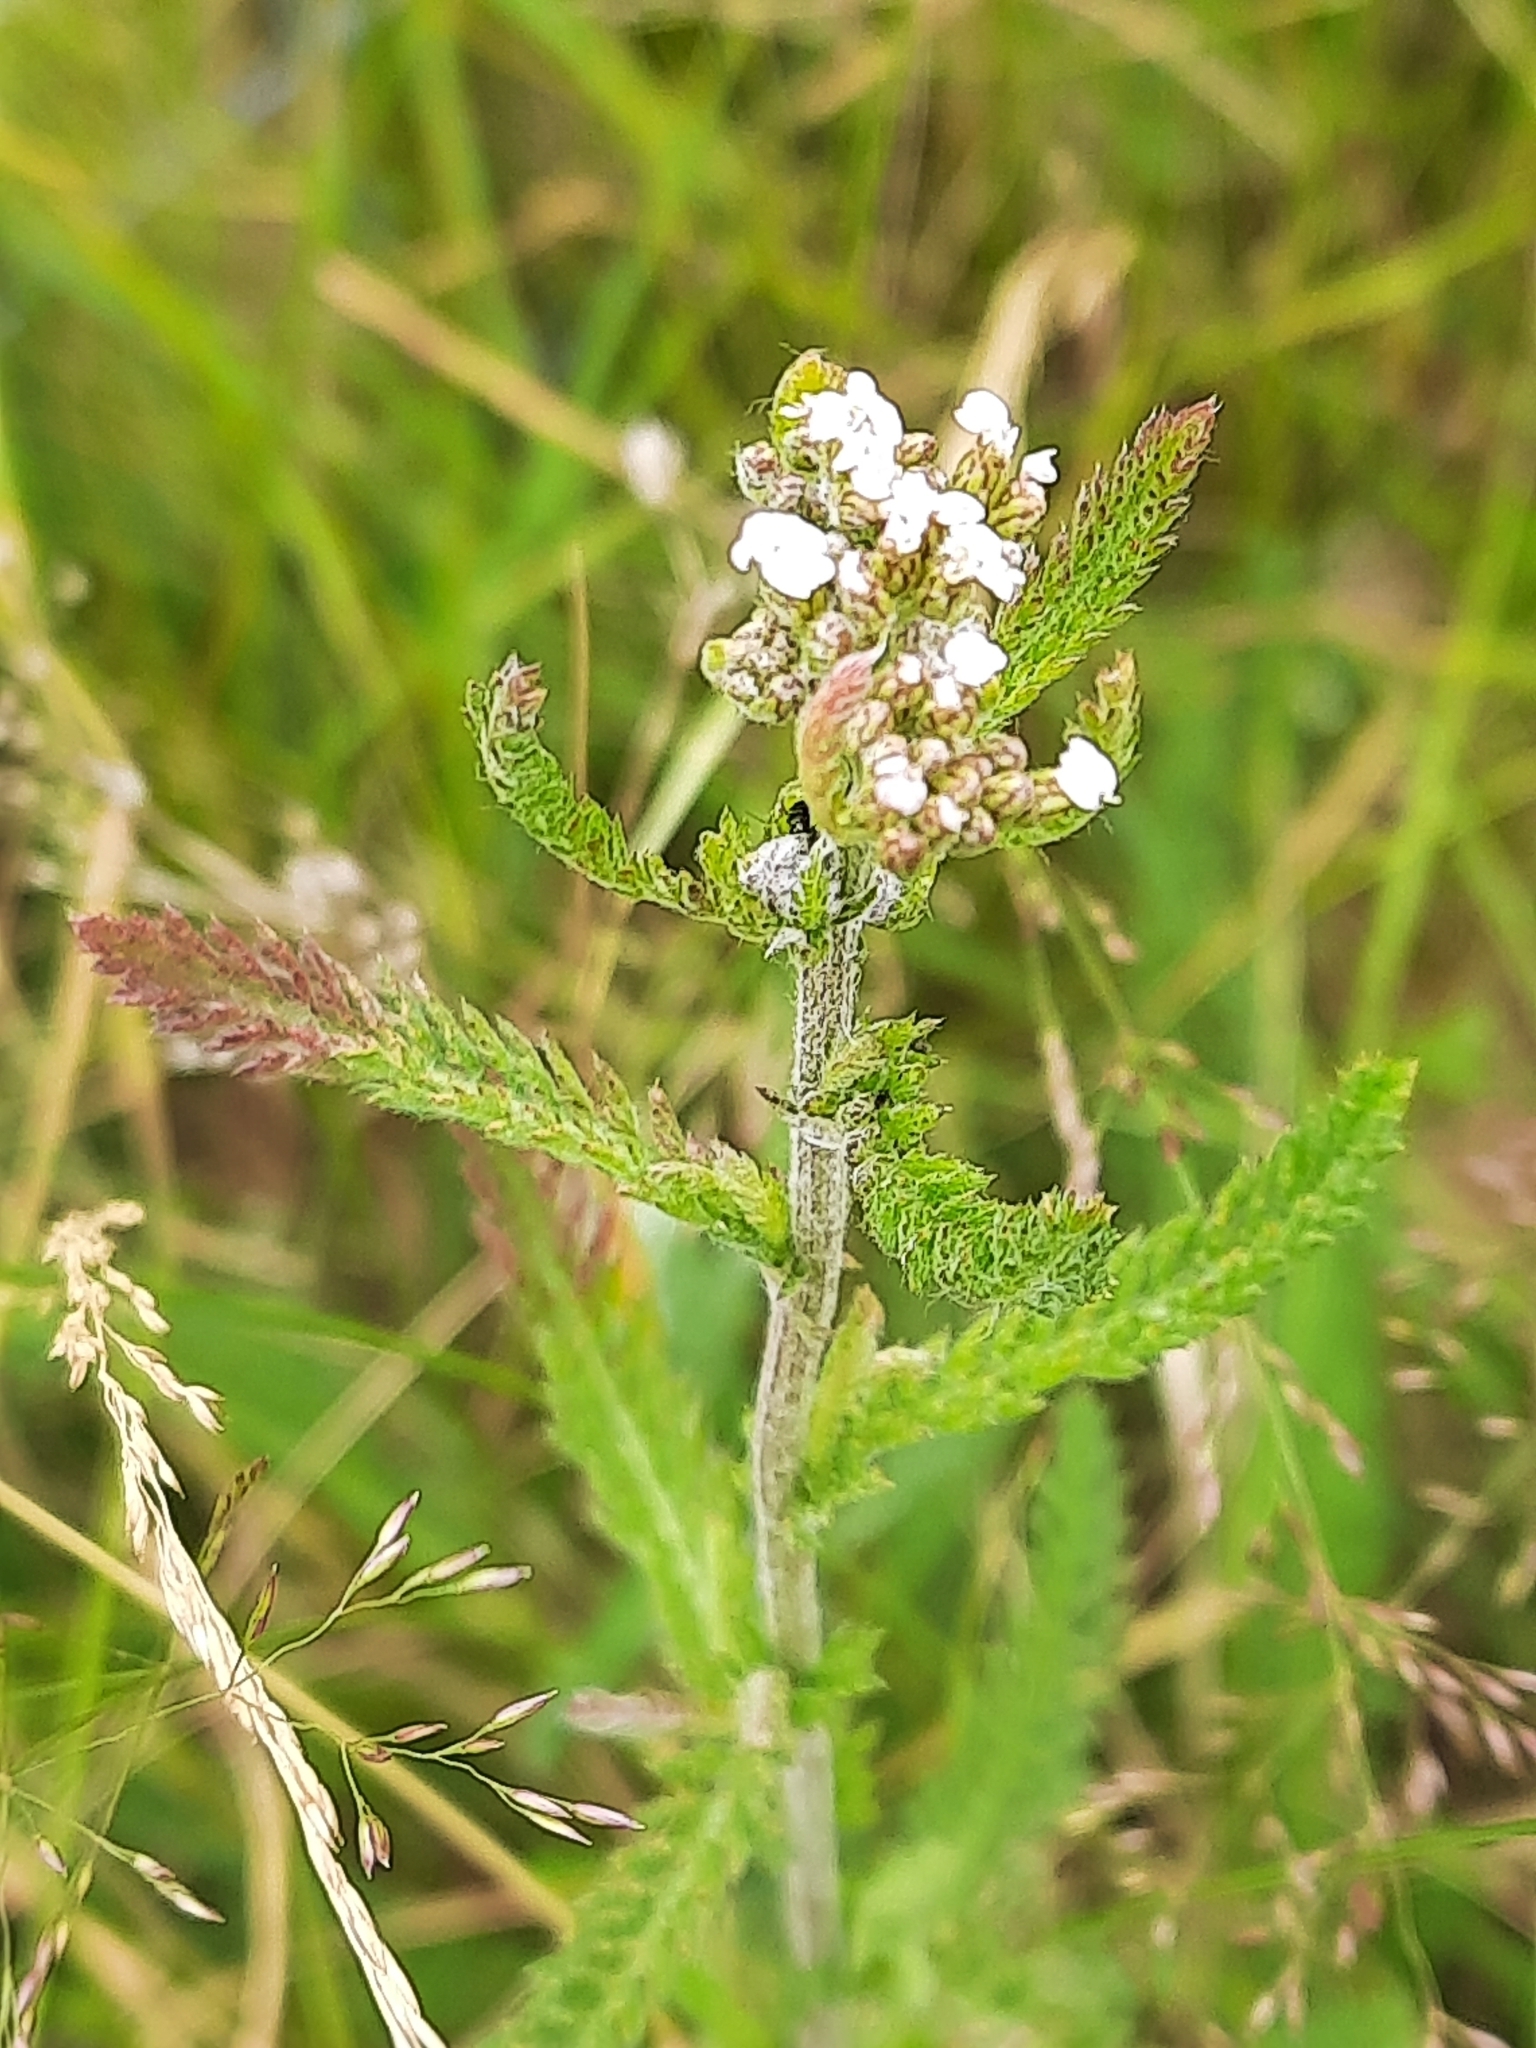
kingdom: Plantae
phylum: Tracheophyta
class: Magnoliopsida
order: Asterales
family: Asteraceae
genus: Achillea
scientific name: Achillea millefolium
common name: Yarrow
